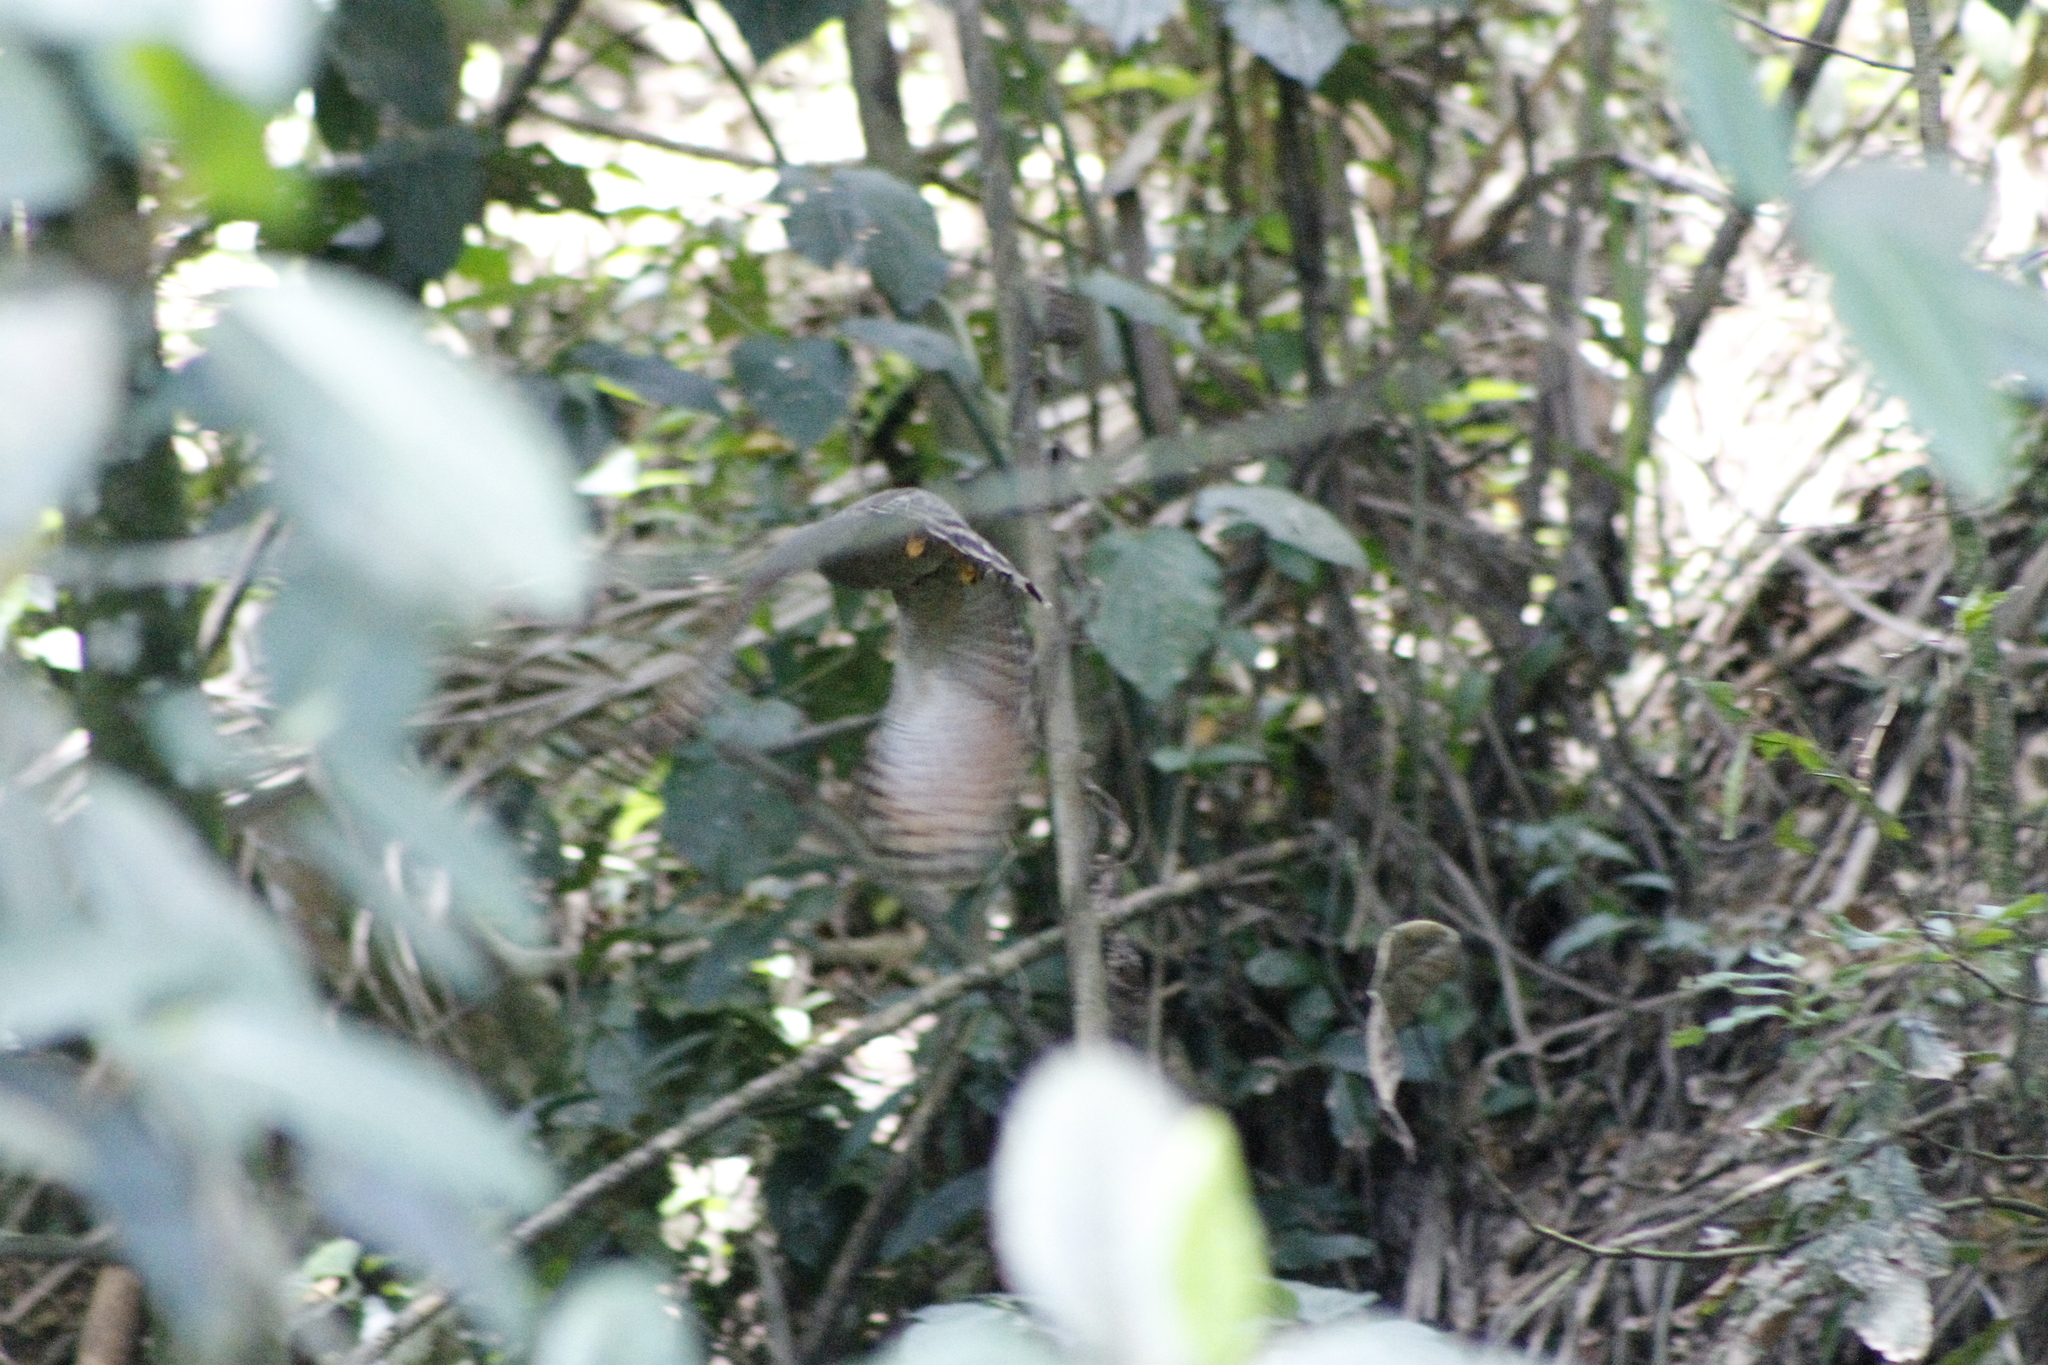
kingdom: Animalia
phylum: Chordata
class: Aves
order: Accipitriformes
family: Accipitridae
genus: Rupornis
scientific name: Rupornis magnirostris
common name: Roadside hawk
